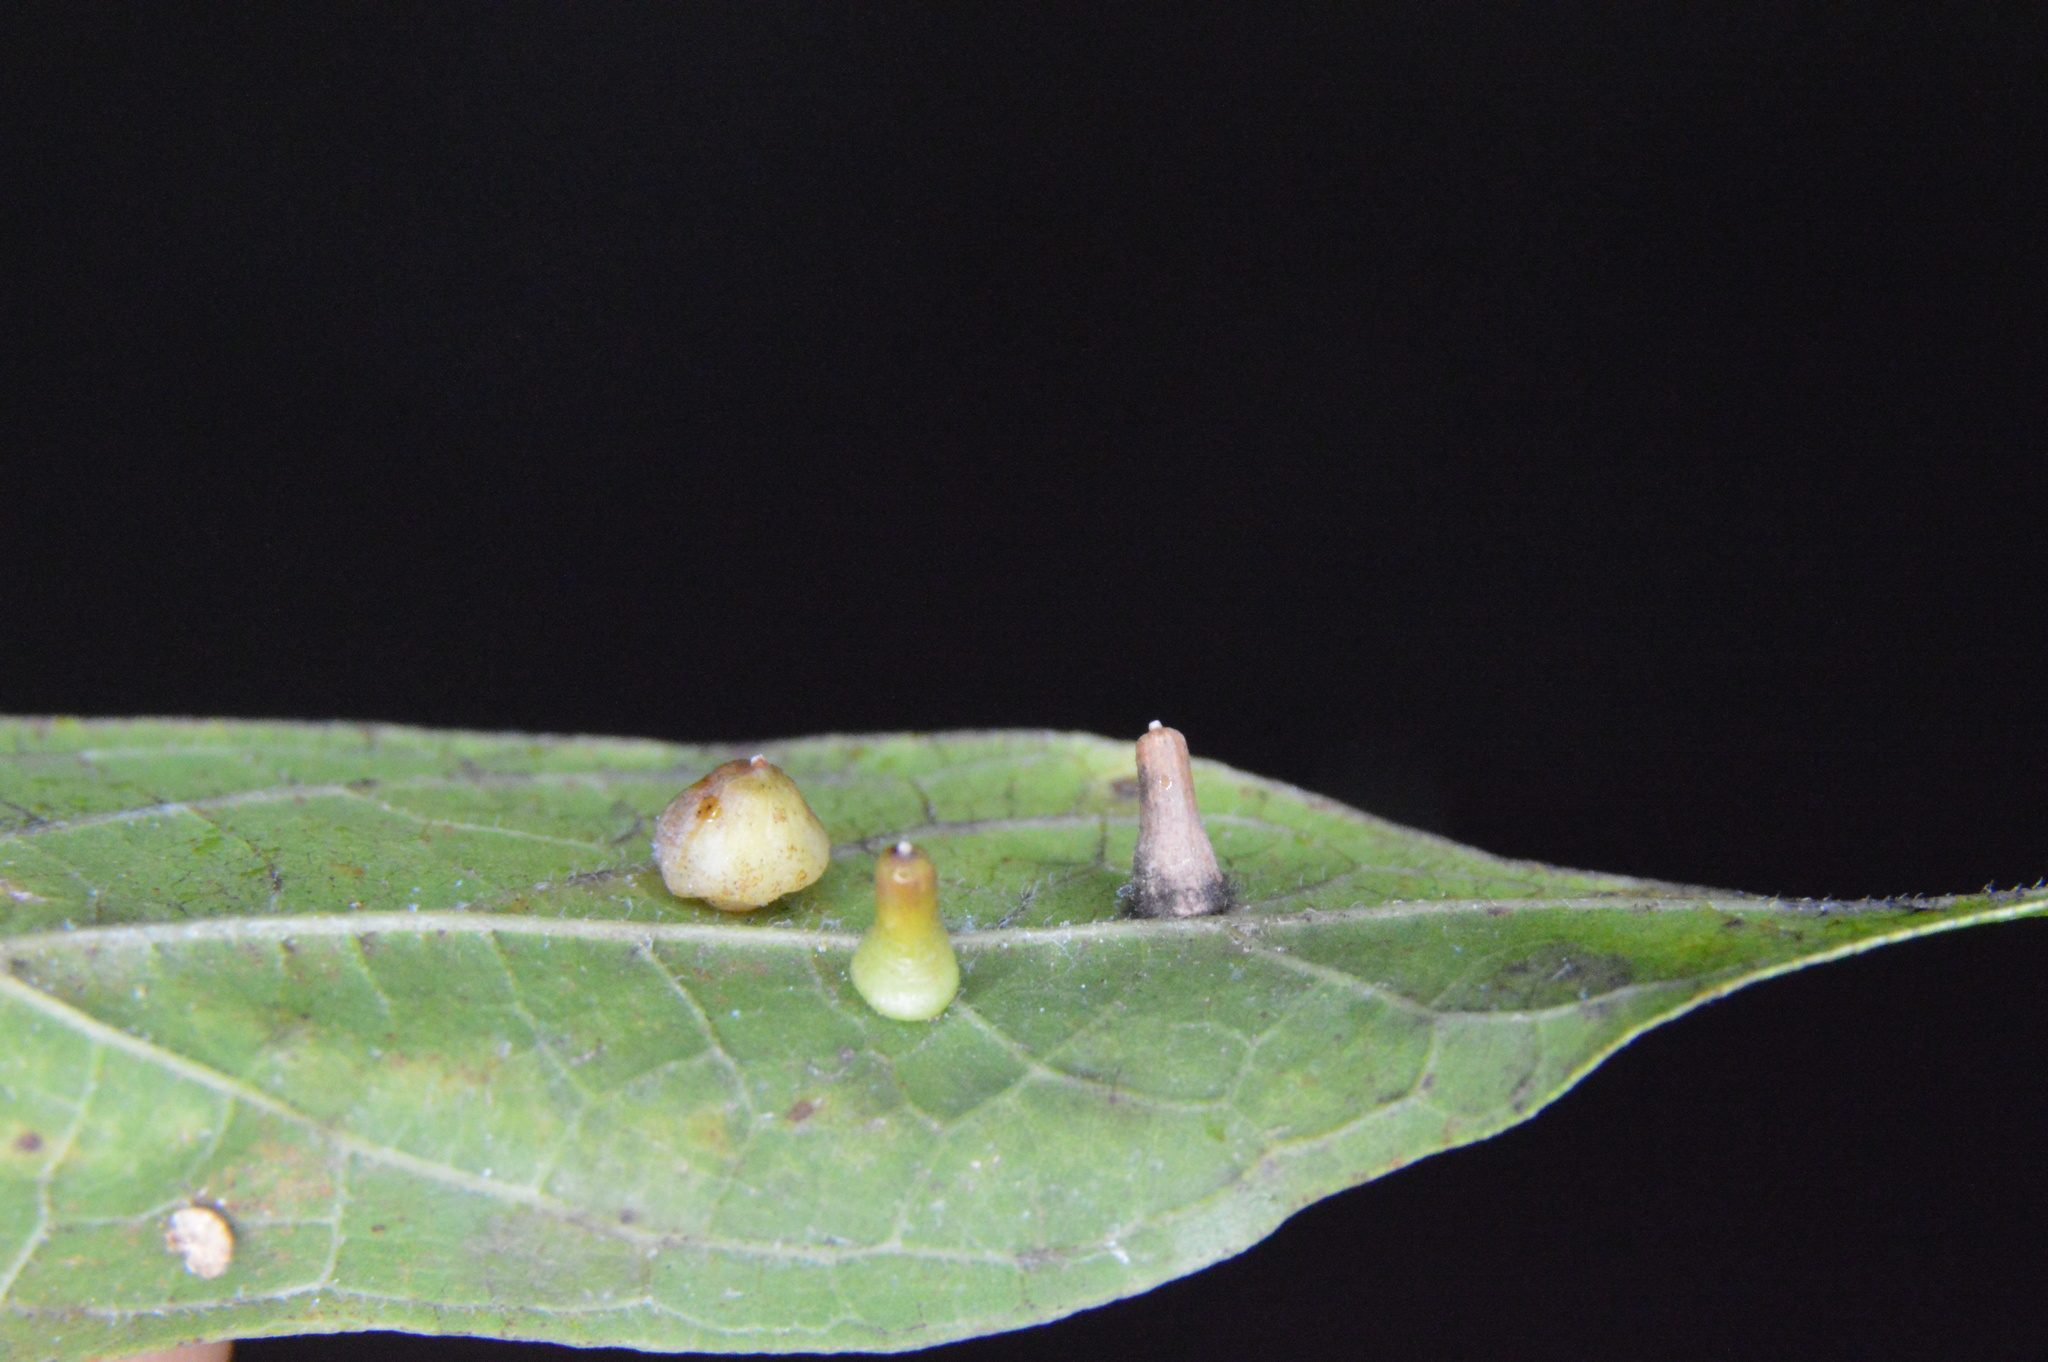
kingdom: Animalia
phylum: Arthropoda
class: Insecta
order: Diptera
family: Cecidomyiidae
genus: Celticecis
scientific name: Celticecis aciculata
